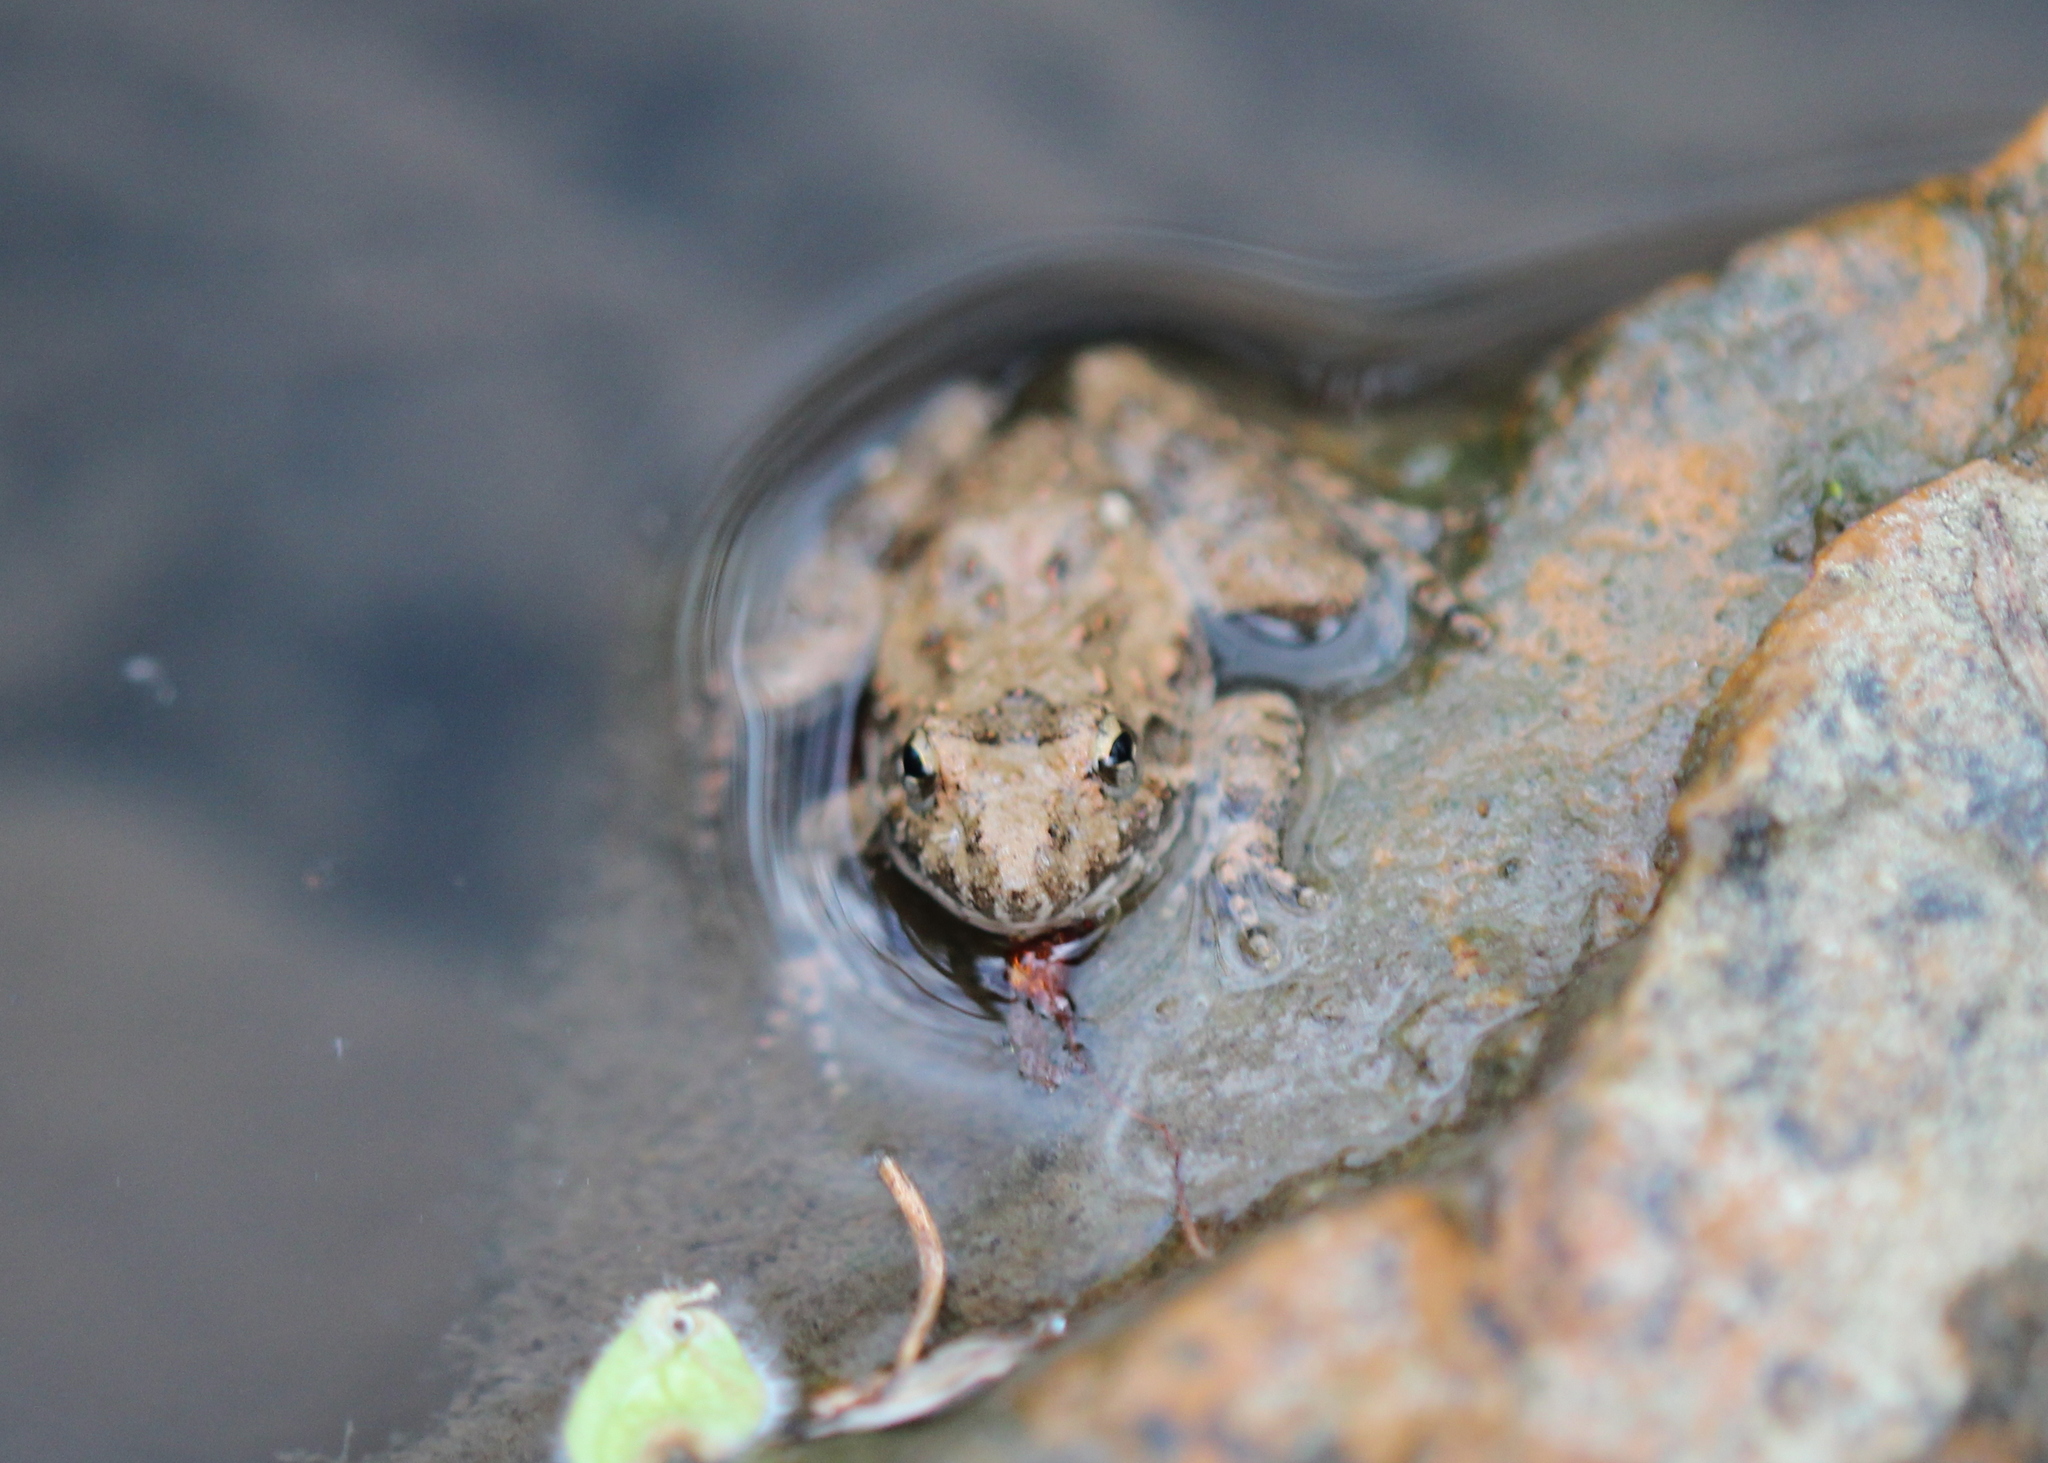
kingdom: Animalia
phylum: Chordata
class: Amphibia
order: Anura
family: Hylidae
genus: Acris
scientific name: Acris blanchardi
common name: Blanchard's cricket frog
